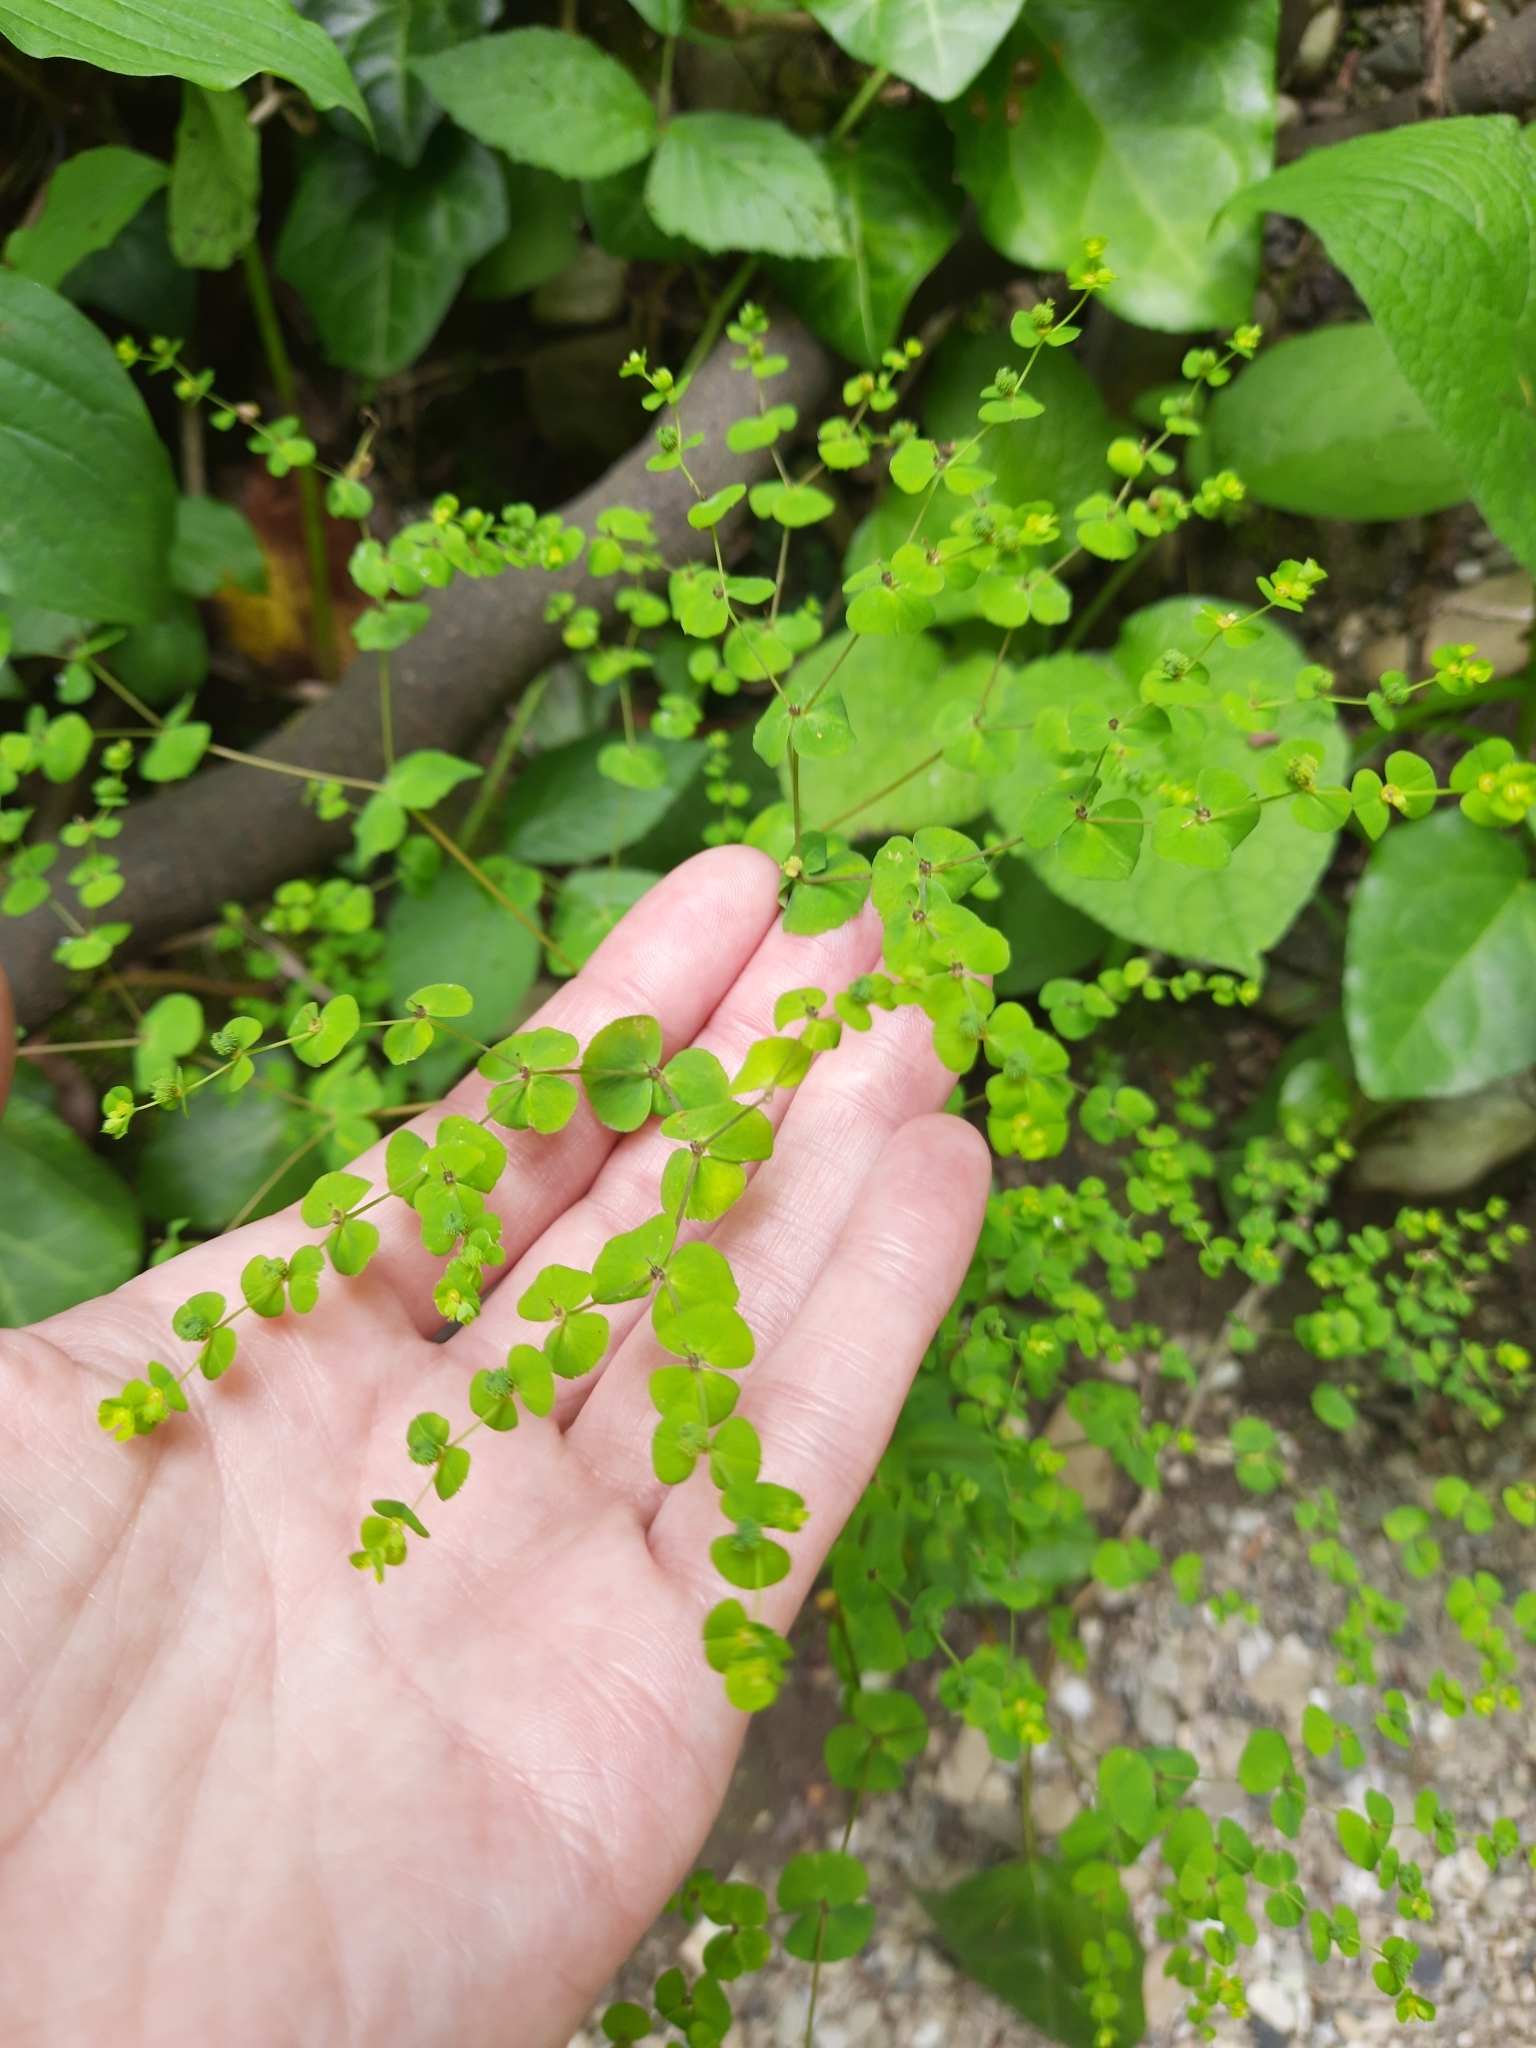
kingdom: Plantae
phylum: Tracheophyta
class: Magnoliopsida
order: Malpighiales
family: Euphorbiaceae
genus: Euphorbia
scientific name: Euphorbia stricta
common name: Upright spurge
